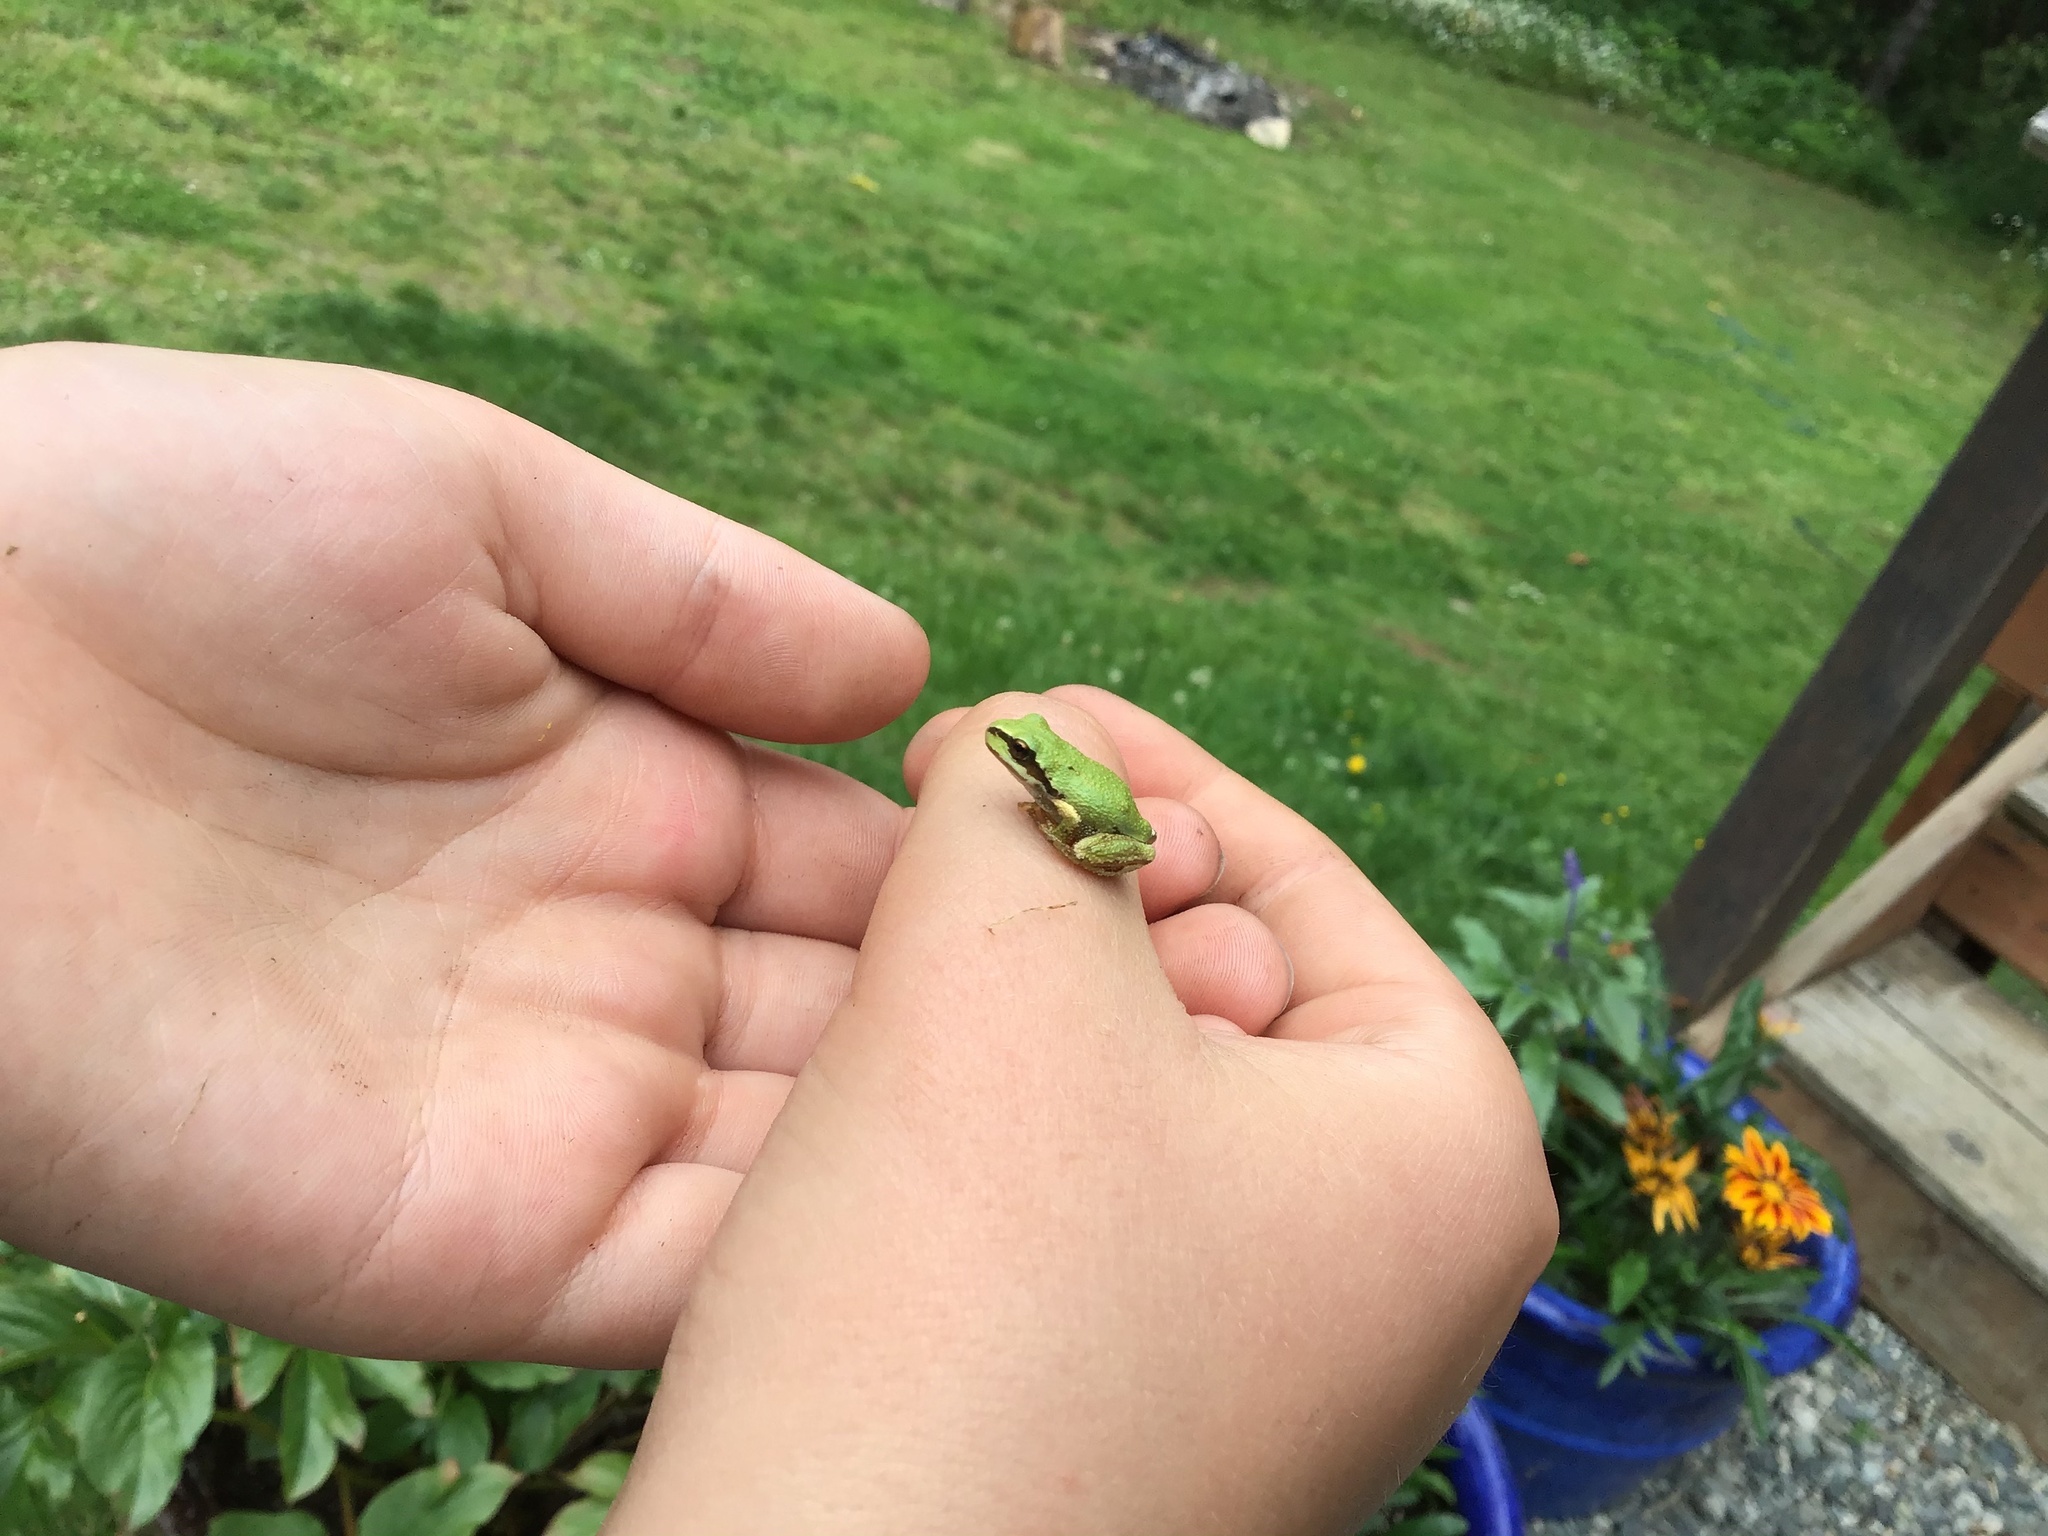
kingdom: Animalia
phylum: Chordata
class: Amphibia
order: Anura
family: Hylidae
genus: Pseudacris
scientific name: Pseudacris regilla
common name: Pacific chorus frog
